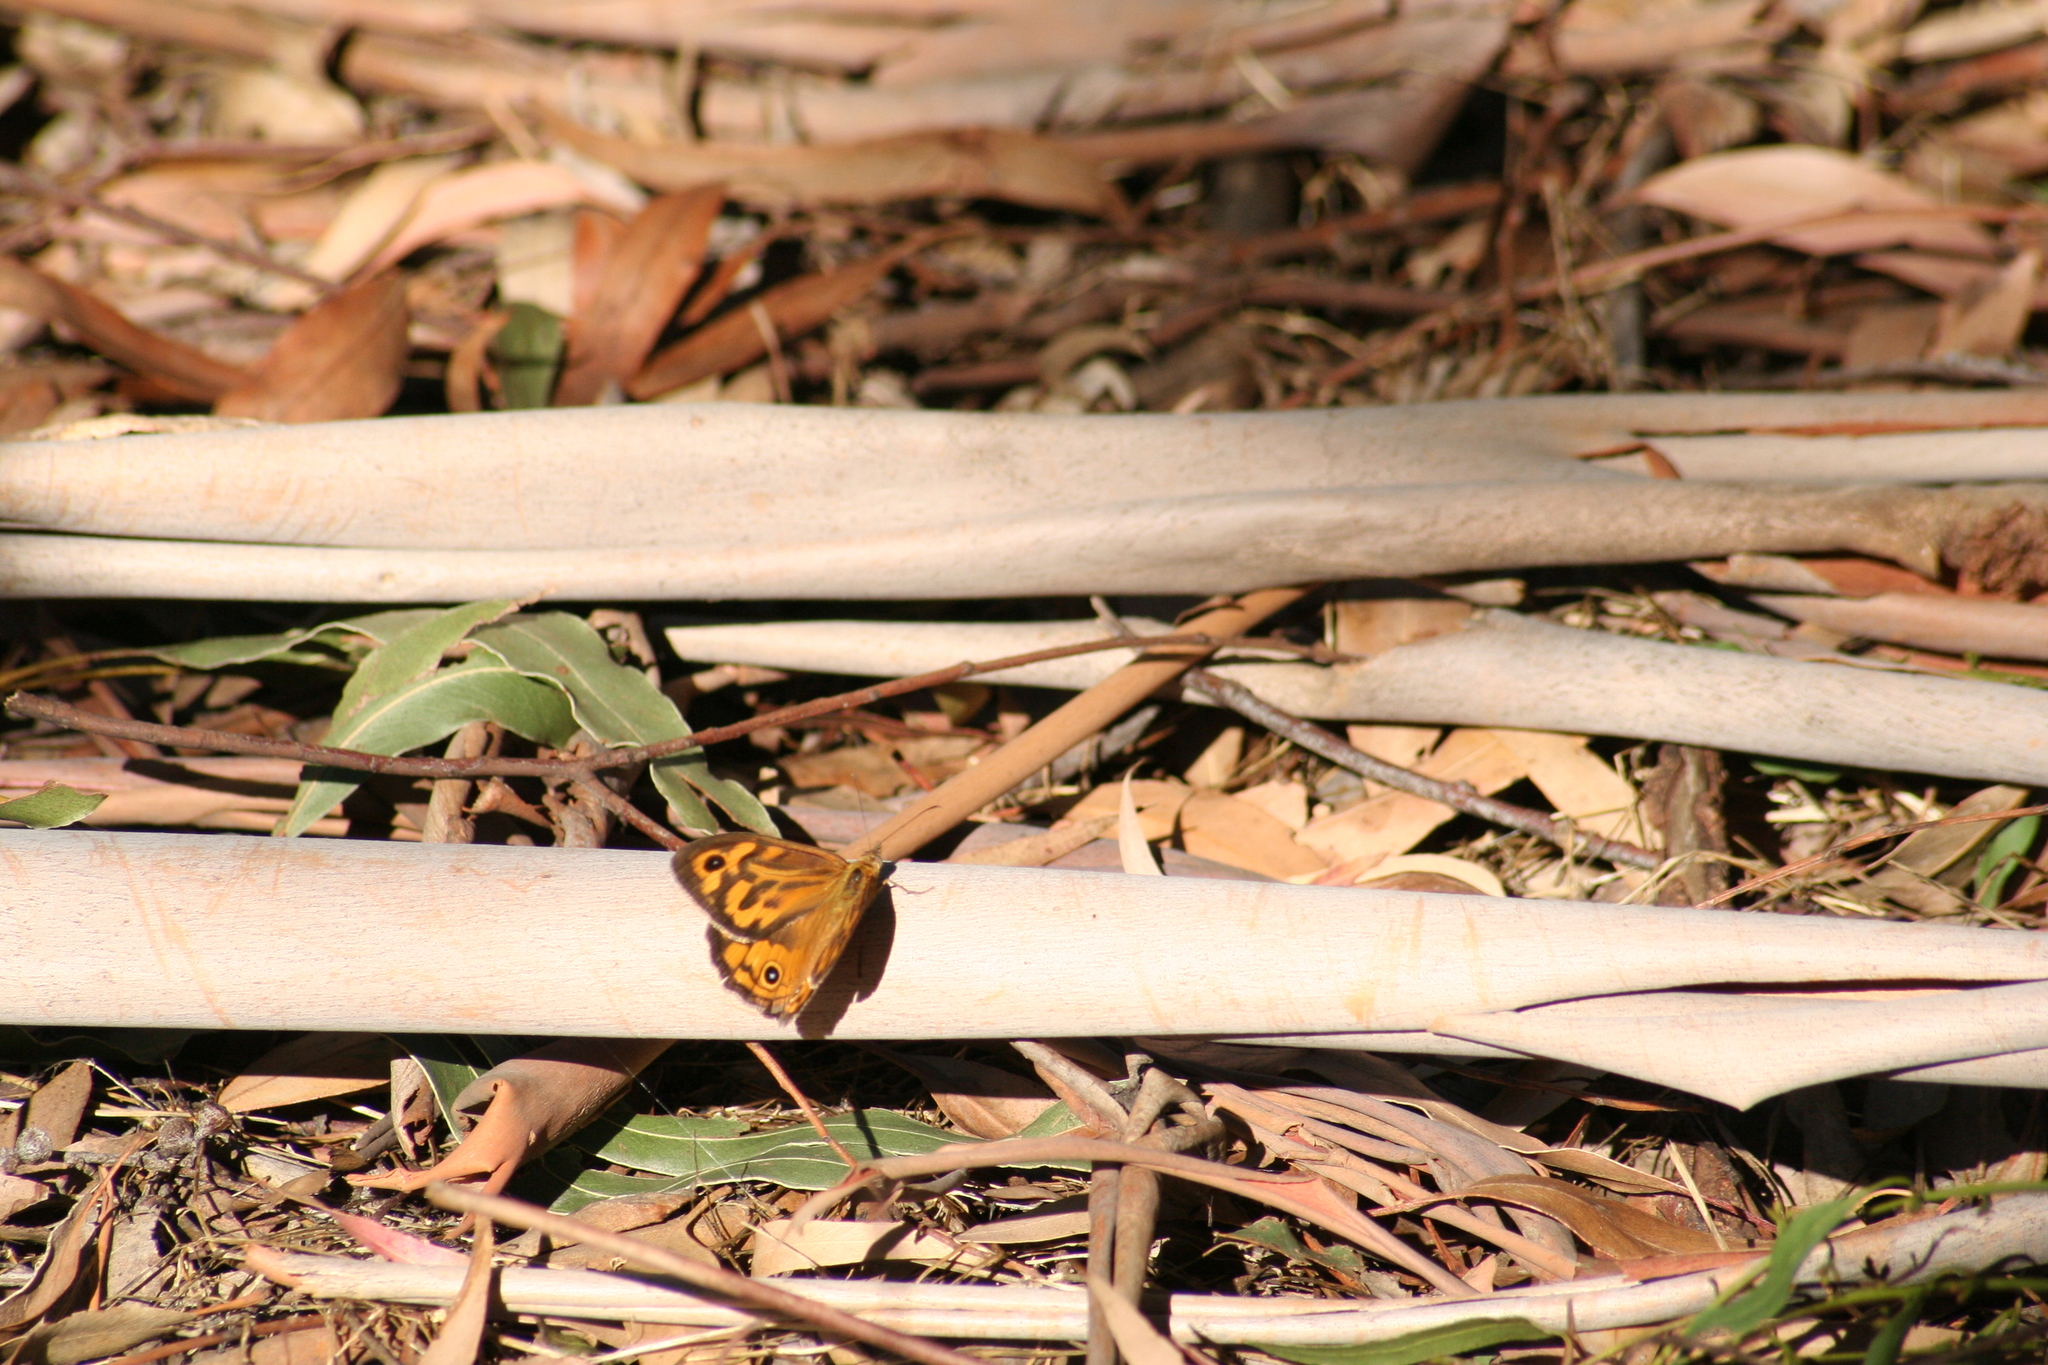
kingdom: Animalia
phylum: Arthropoda
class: Insecta
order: Lepidoptera
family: Nymphalidae
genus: Heteronympha
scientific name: Heteronympha merope
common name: Common brown
